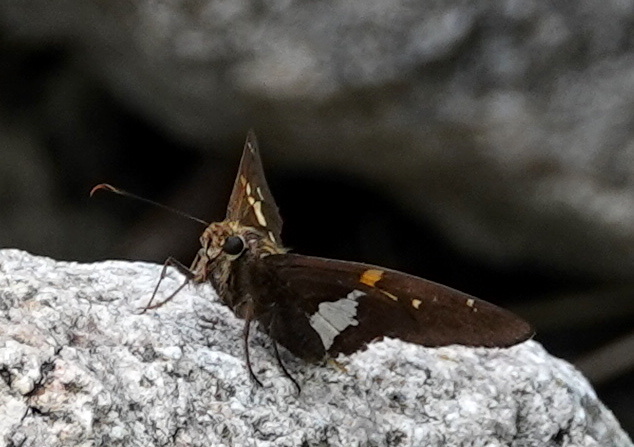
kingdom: Animalia
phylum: Arthropoda
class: Insecta
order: Lepidoptera
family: Hesperiidae
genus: Epargyreus
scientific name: Epargyreus clarus
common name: Silver-spotted skipper
